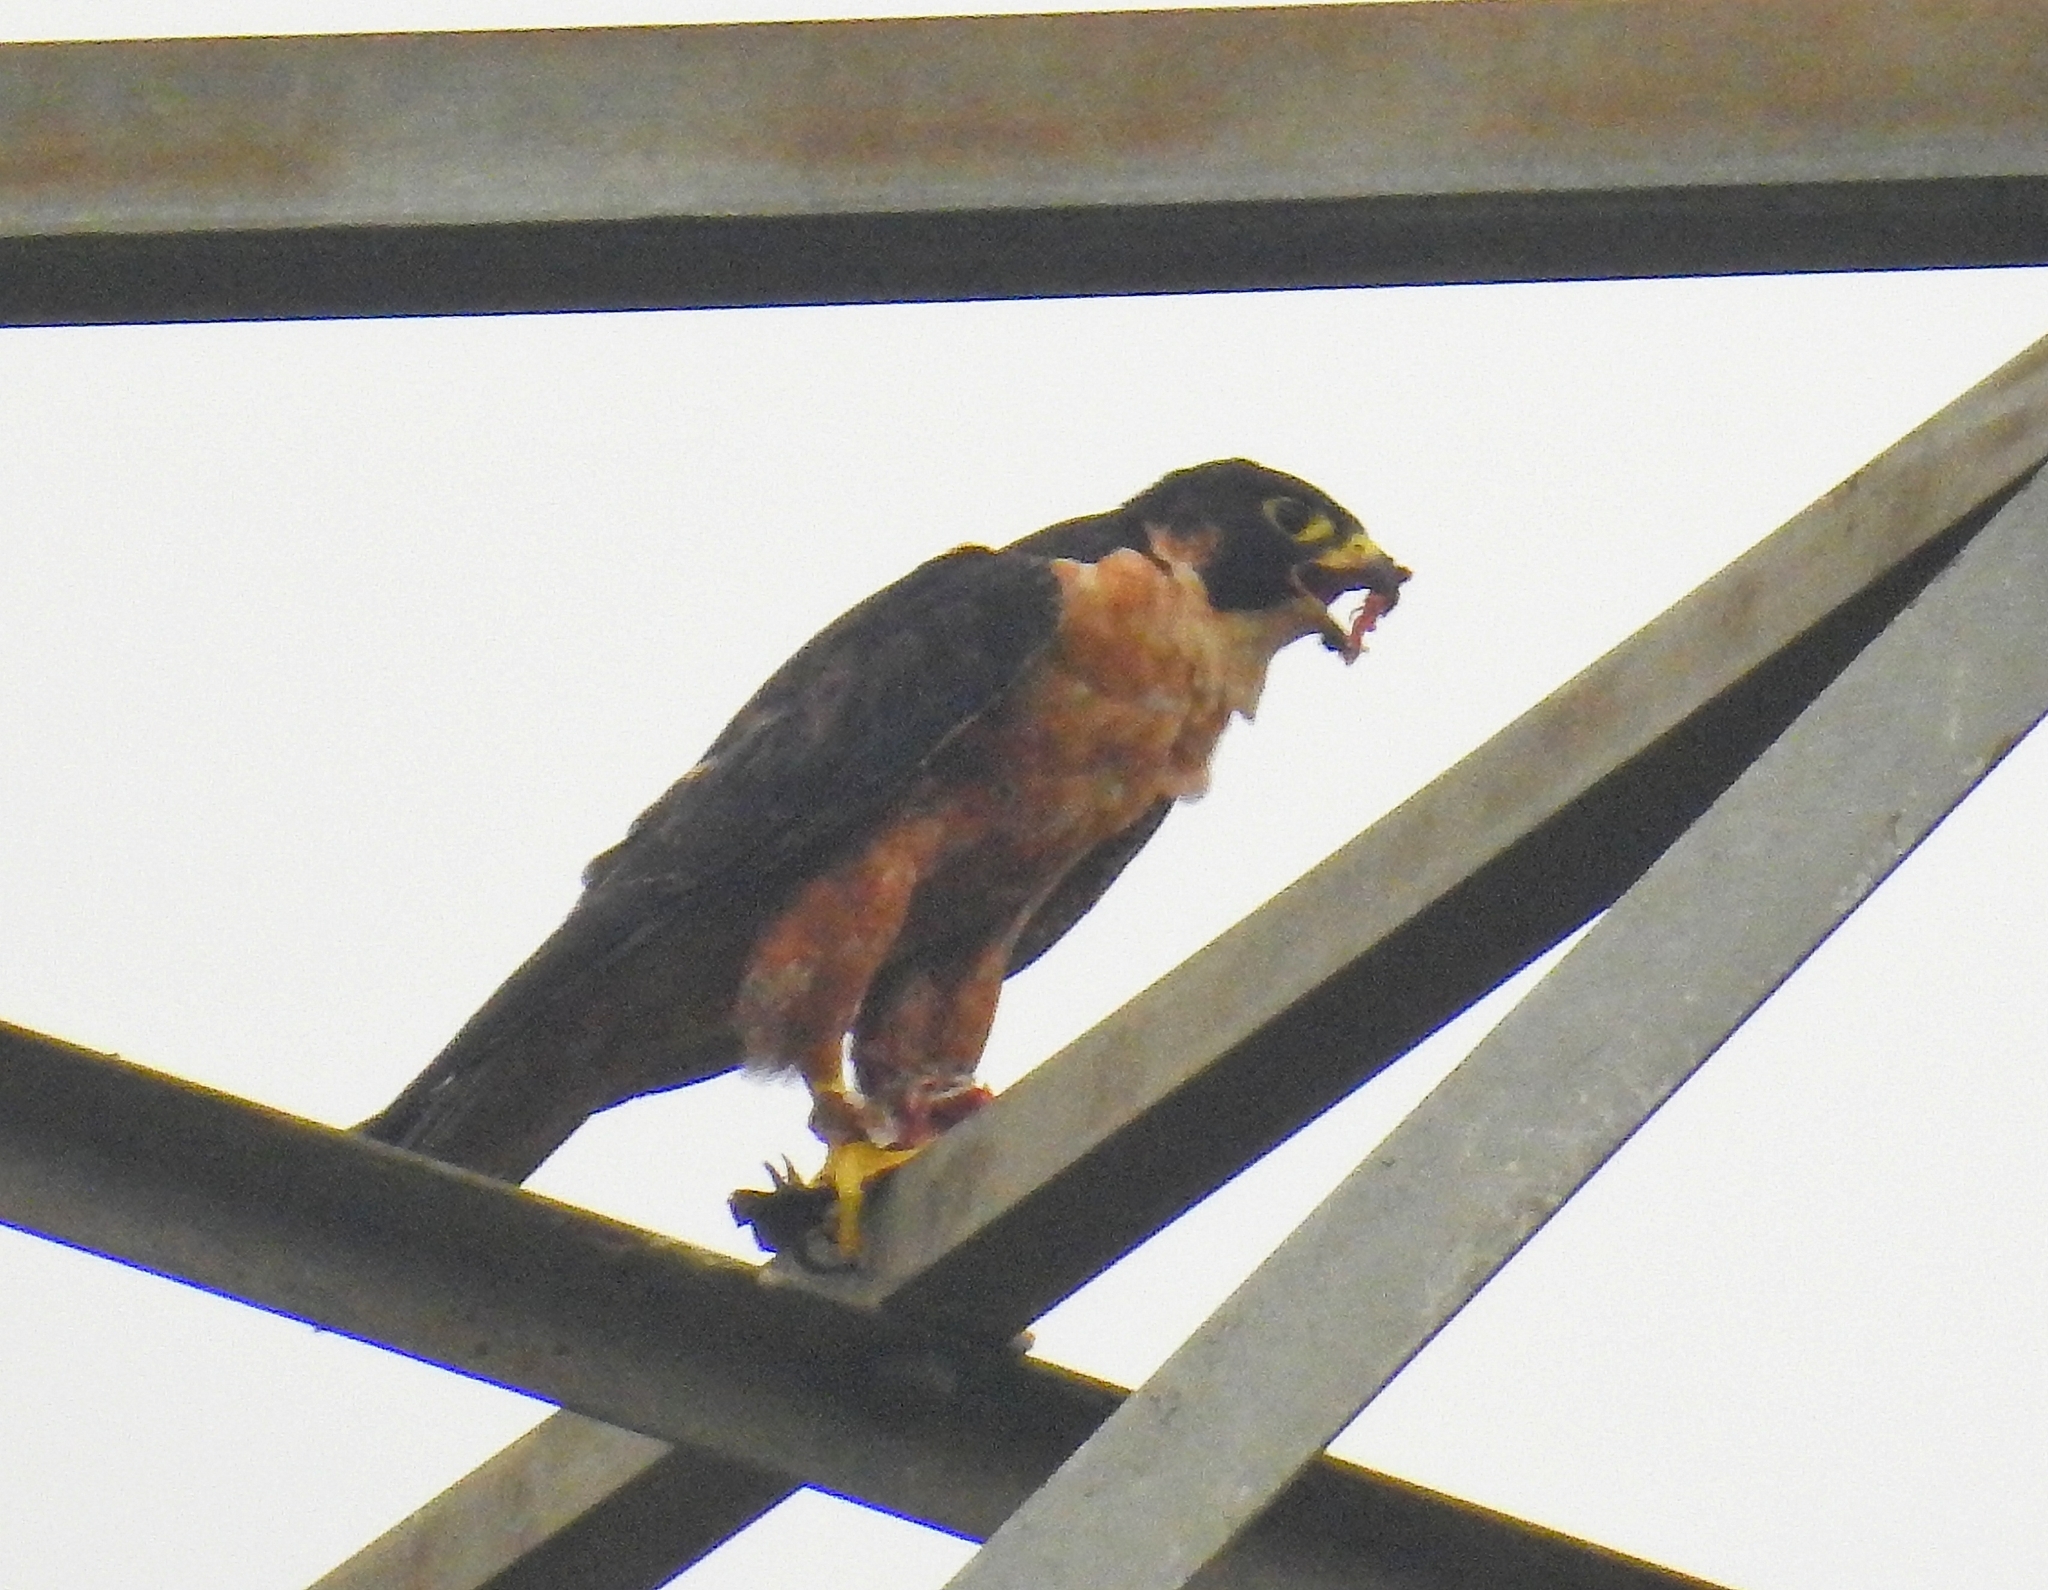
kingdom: Animalia
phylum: Chordata
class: Aves
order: Falconiformes
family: Falconidae
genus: Falco
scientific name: Falco peregrinus
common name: Peregrine falcon
